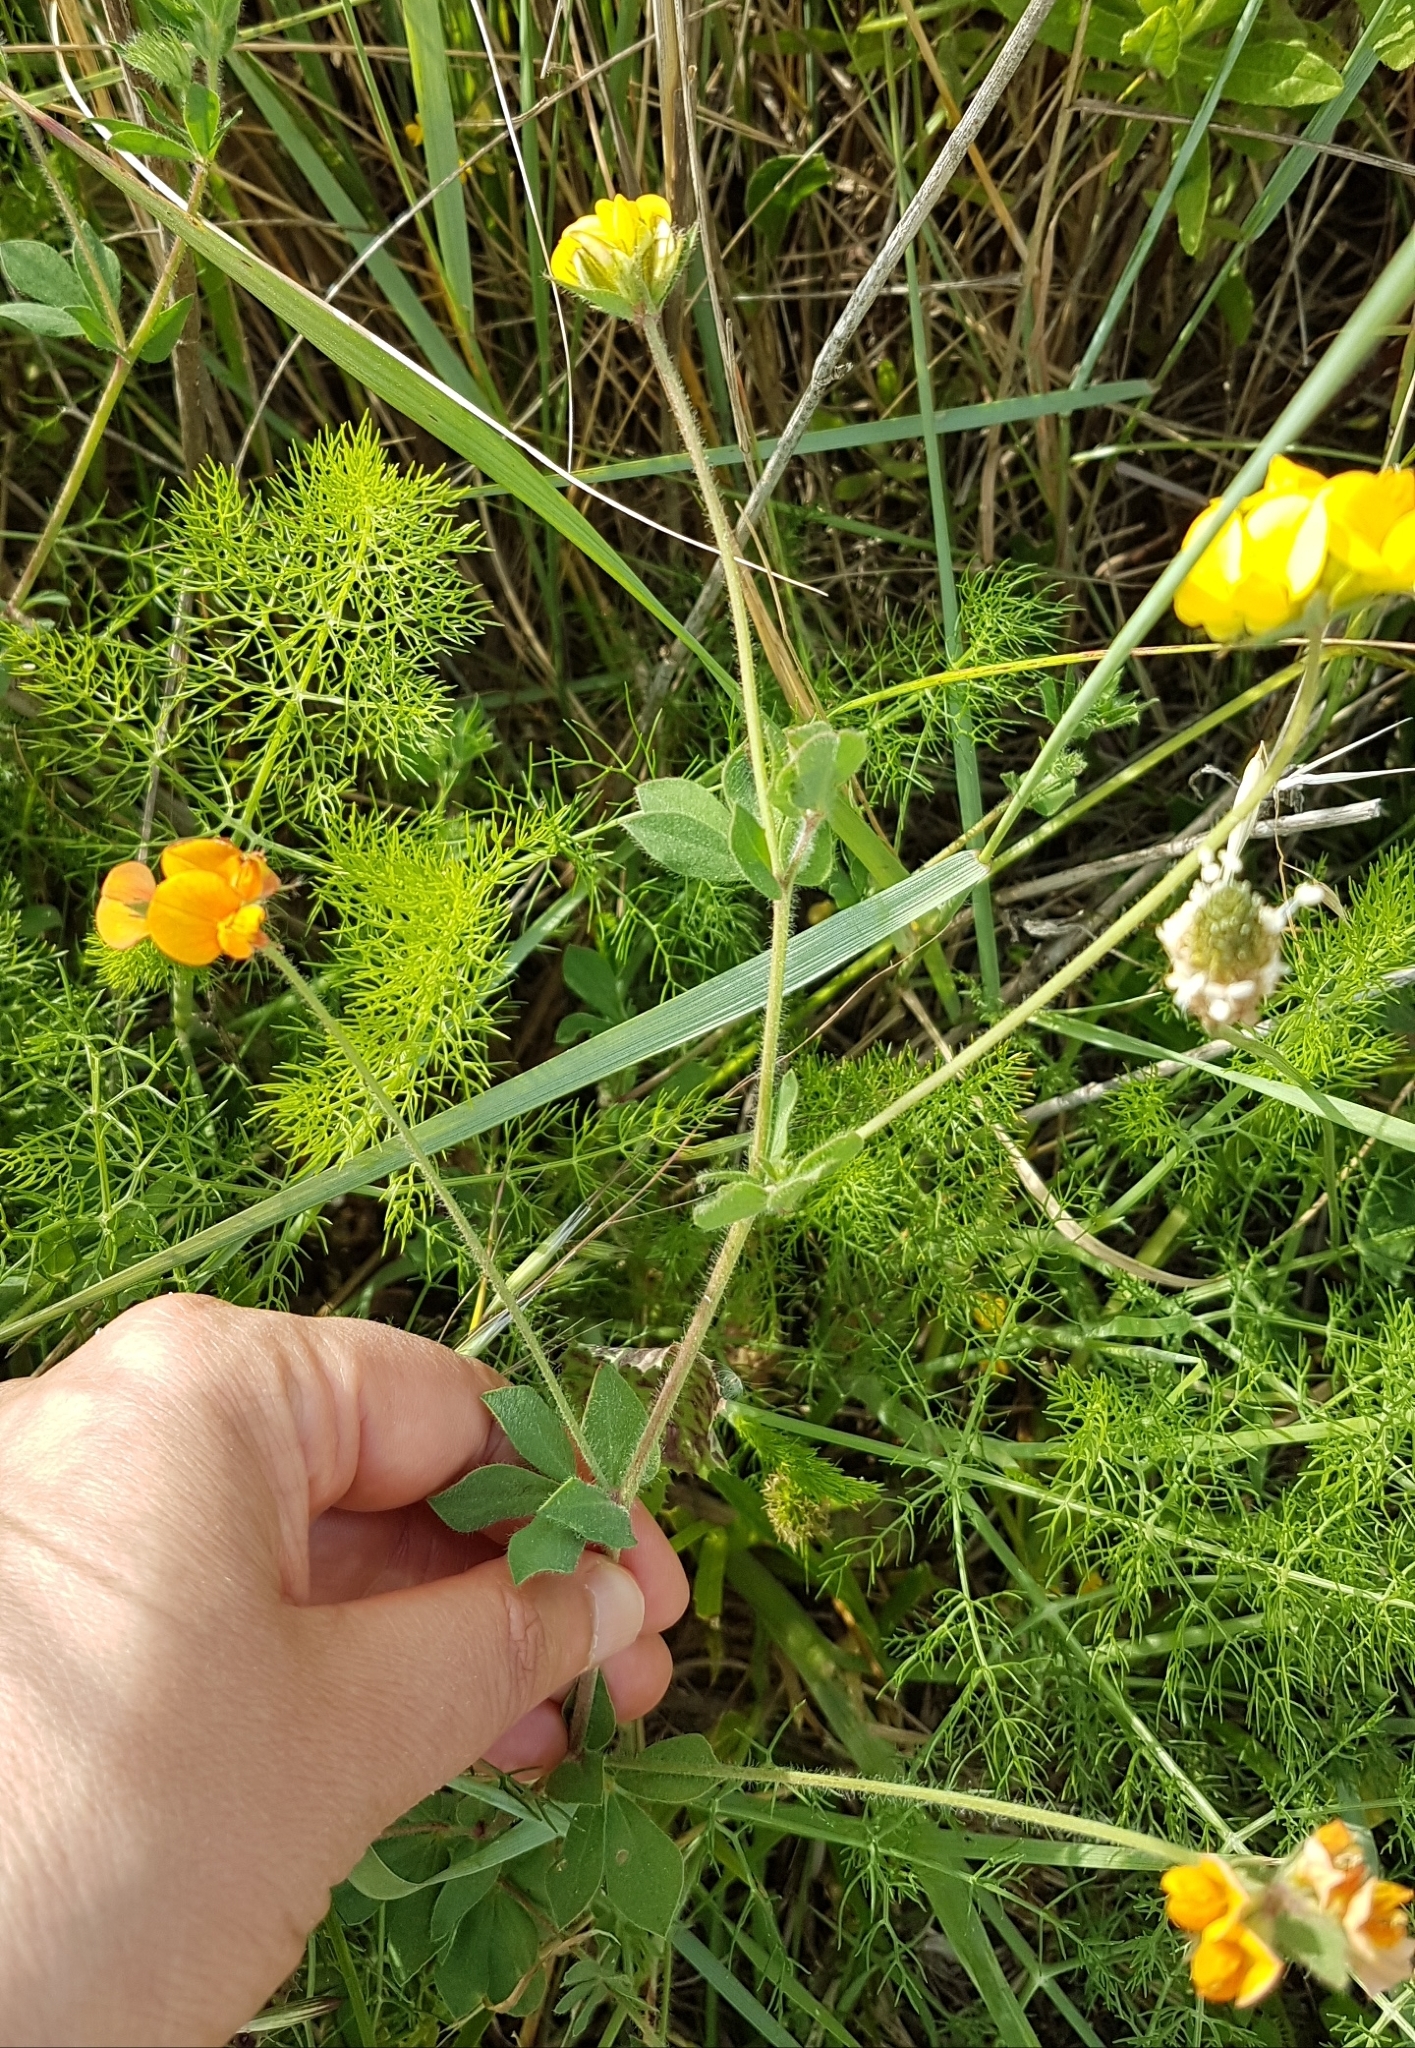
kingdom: Plantae
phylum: Tracheophyta
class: Magnoliopsida
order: Fabales
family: Fabaceae
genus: Lotus
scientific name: Lotus corniculatus
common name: Common bird's-foot-trefoil
